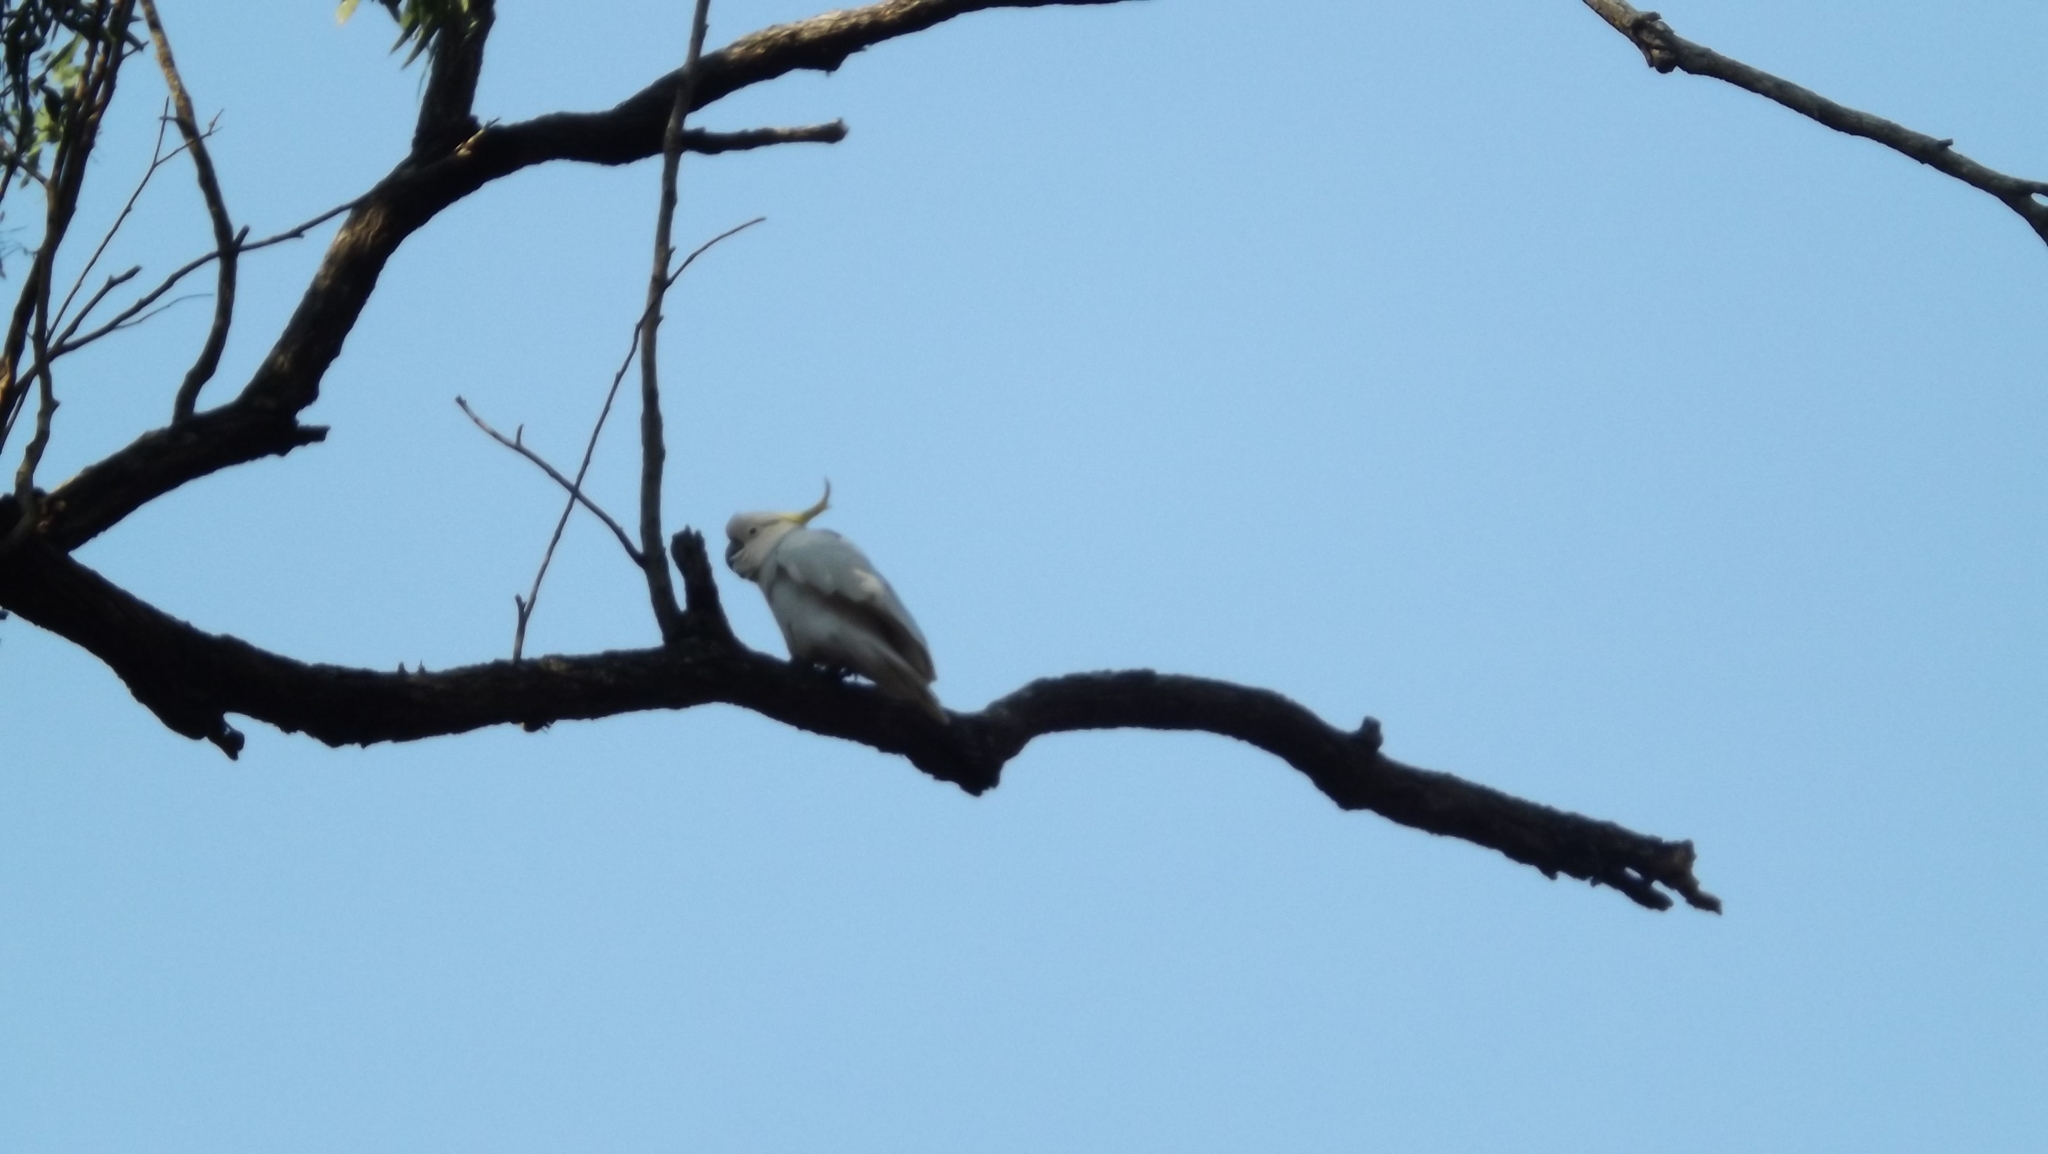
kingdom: Animalia
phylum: Chordata
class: Aves
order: Psittaciformes
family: Psittacidae
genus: Cacatua
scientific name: Cacatua galerita
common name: Sulphur-crested cockatoo
